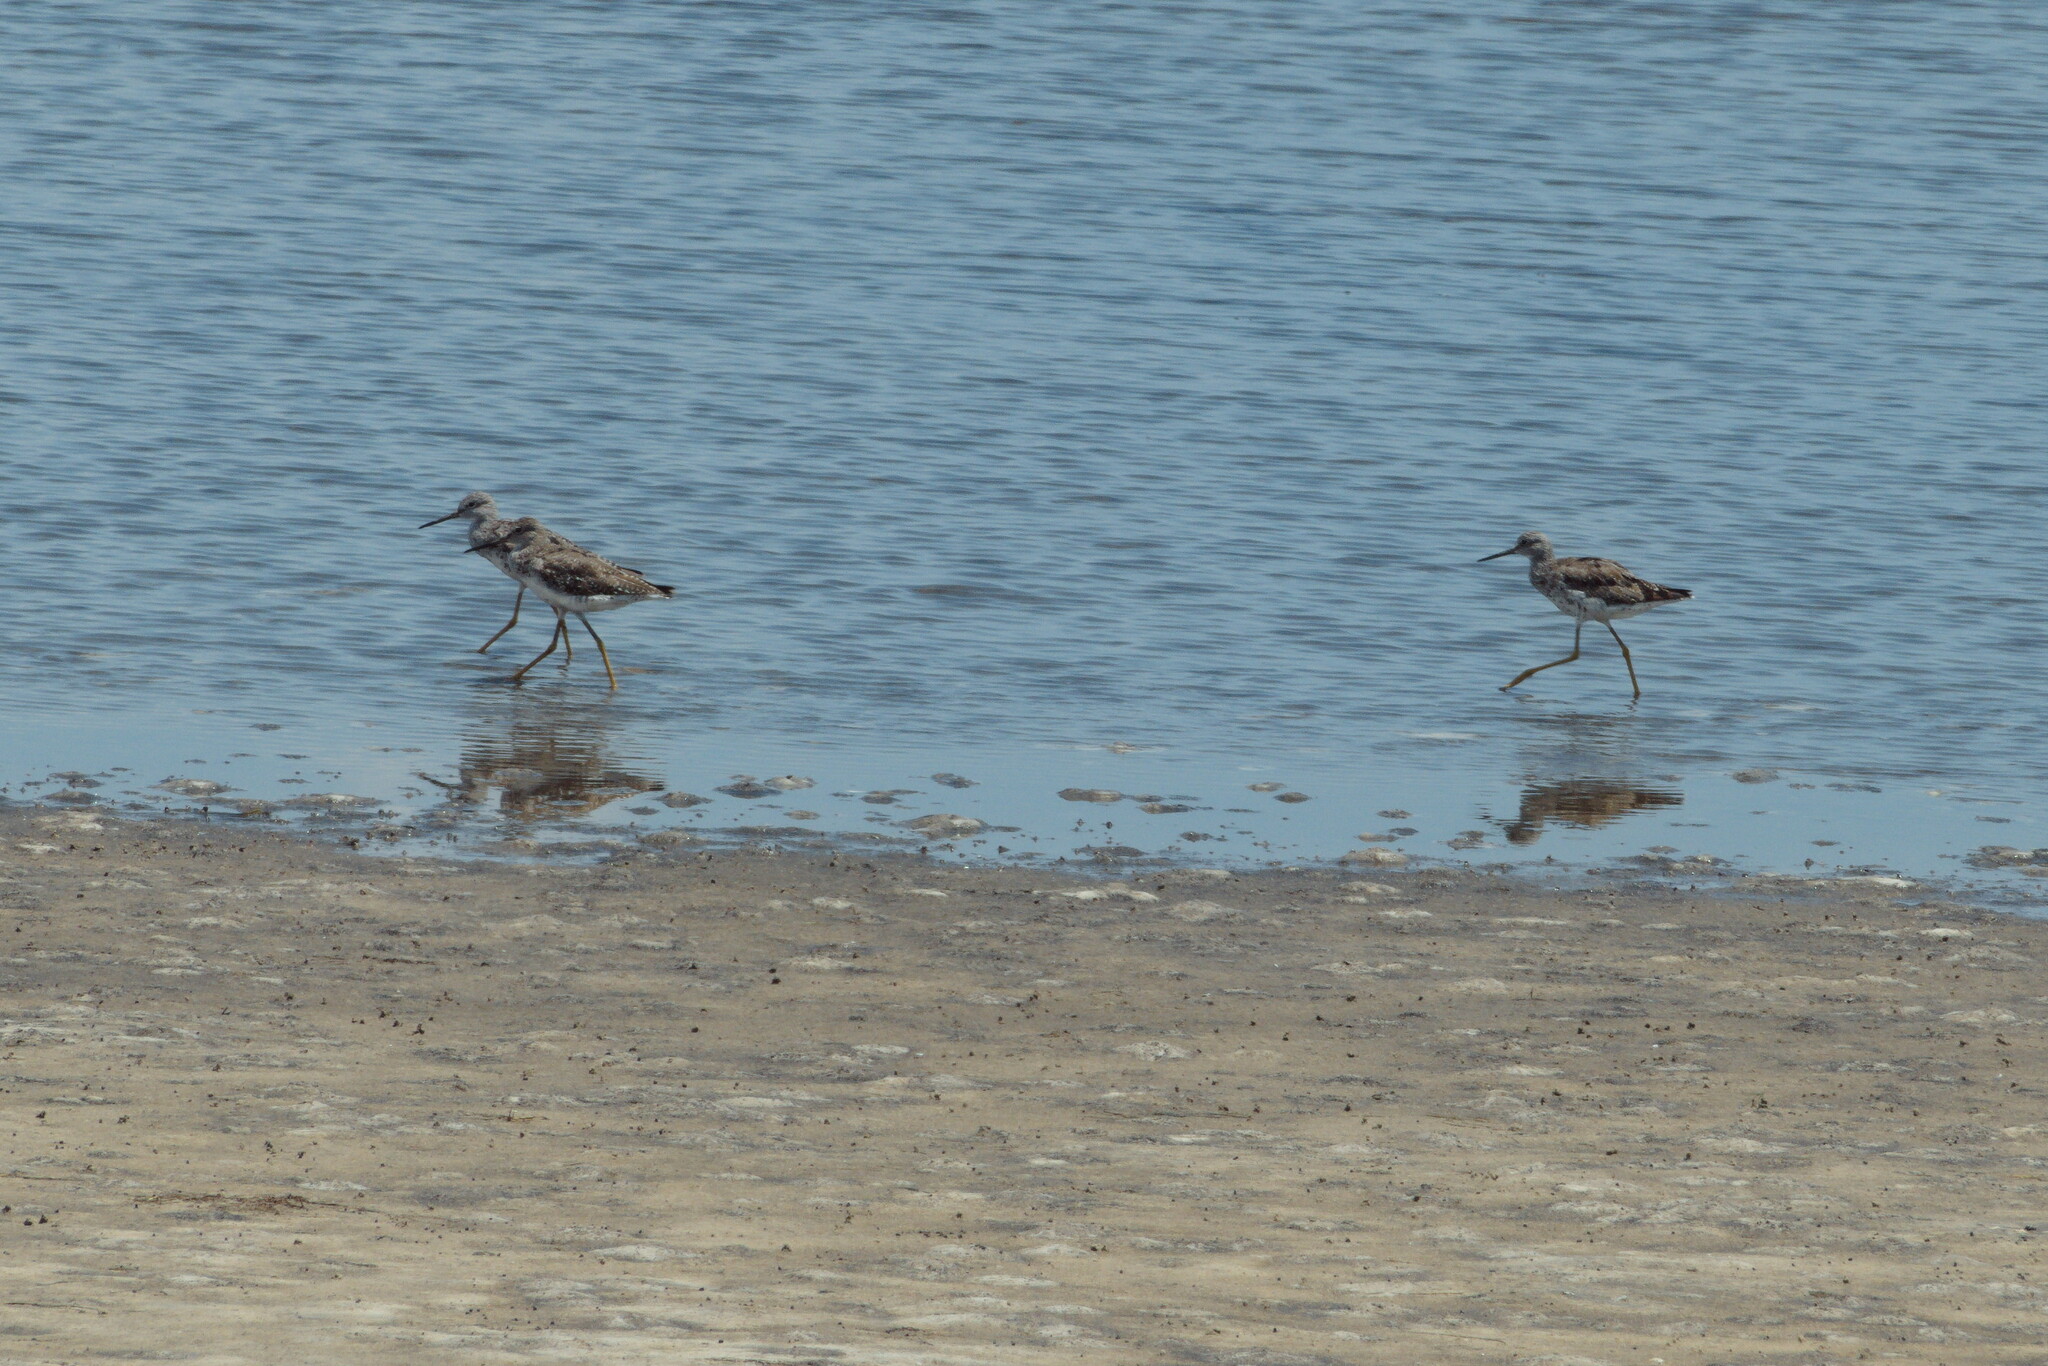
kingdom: Animalia
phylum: Chordata
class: Aves
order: Charadriiformes
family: Scolopacidae
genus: Tringa
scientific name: Tringa flavipes
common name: Lesser yellowlegs
